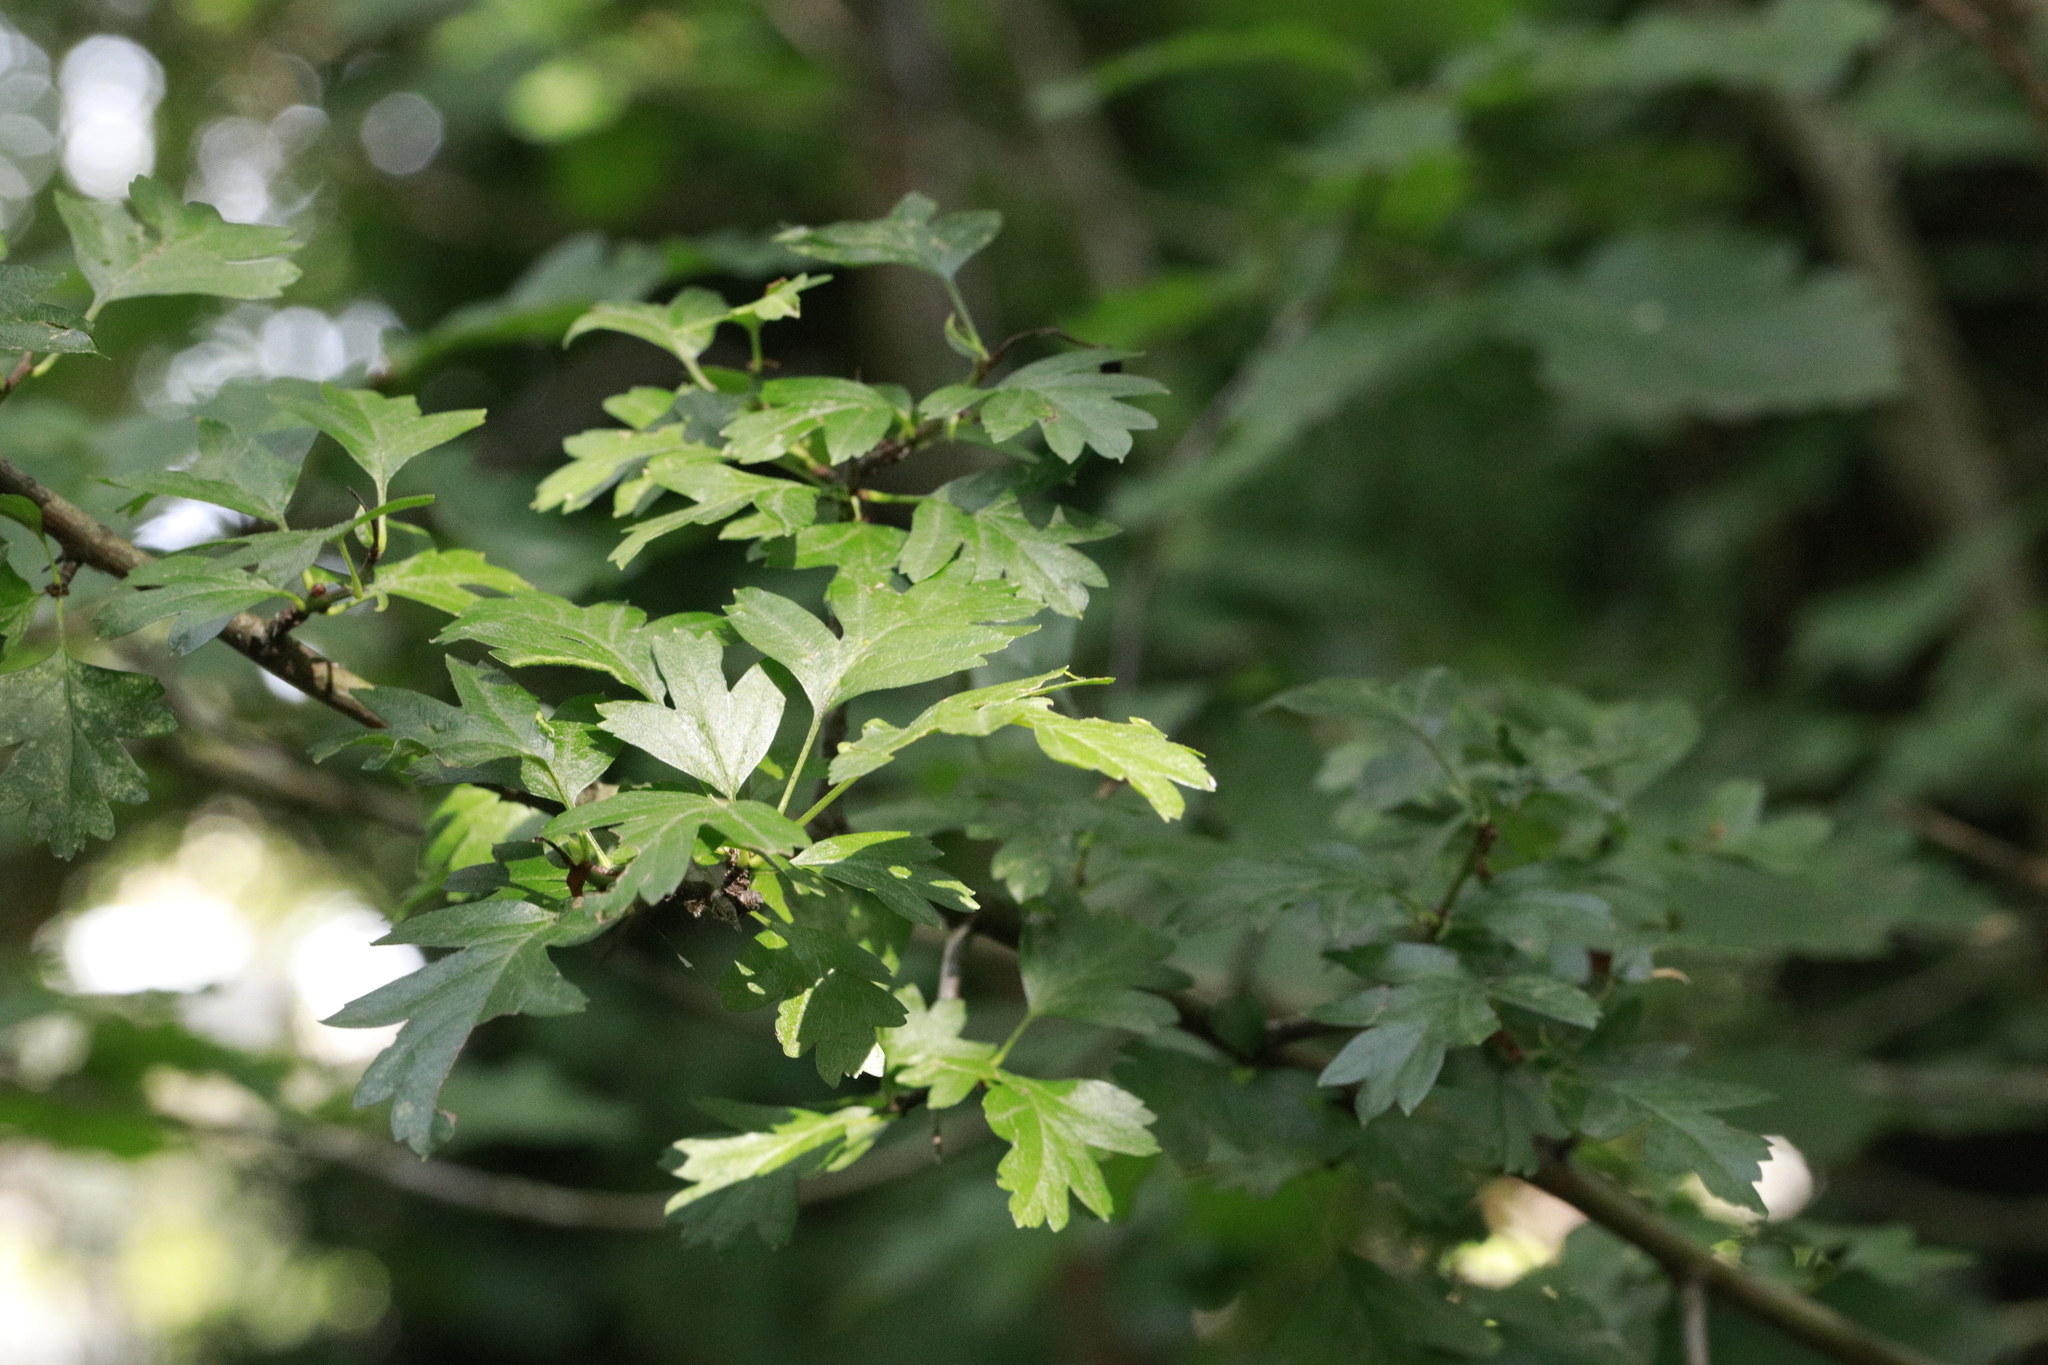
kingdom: Plantae
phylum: Tracheophyta
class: Magnoliopsida
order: Rosales
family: Rosaceae
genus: Crataegus
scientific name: Crataegus monogyna
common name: Hawthorn
